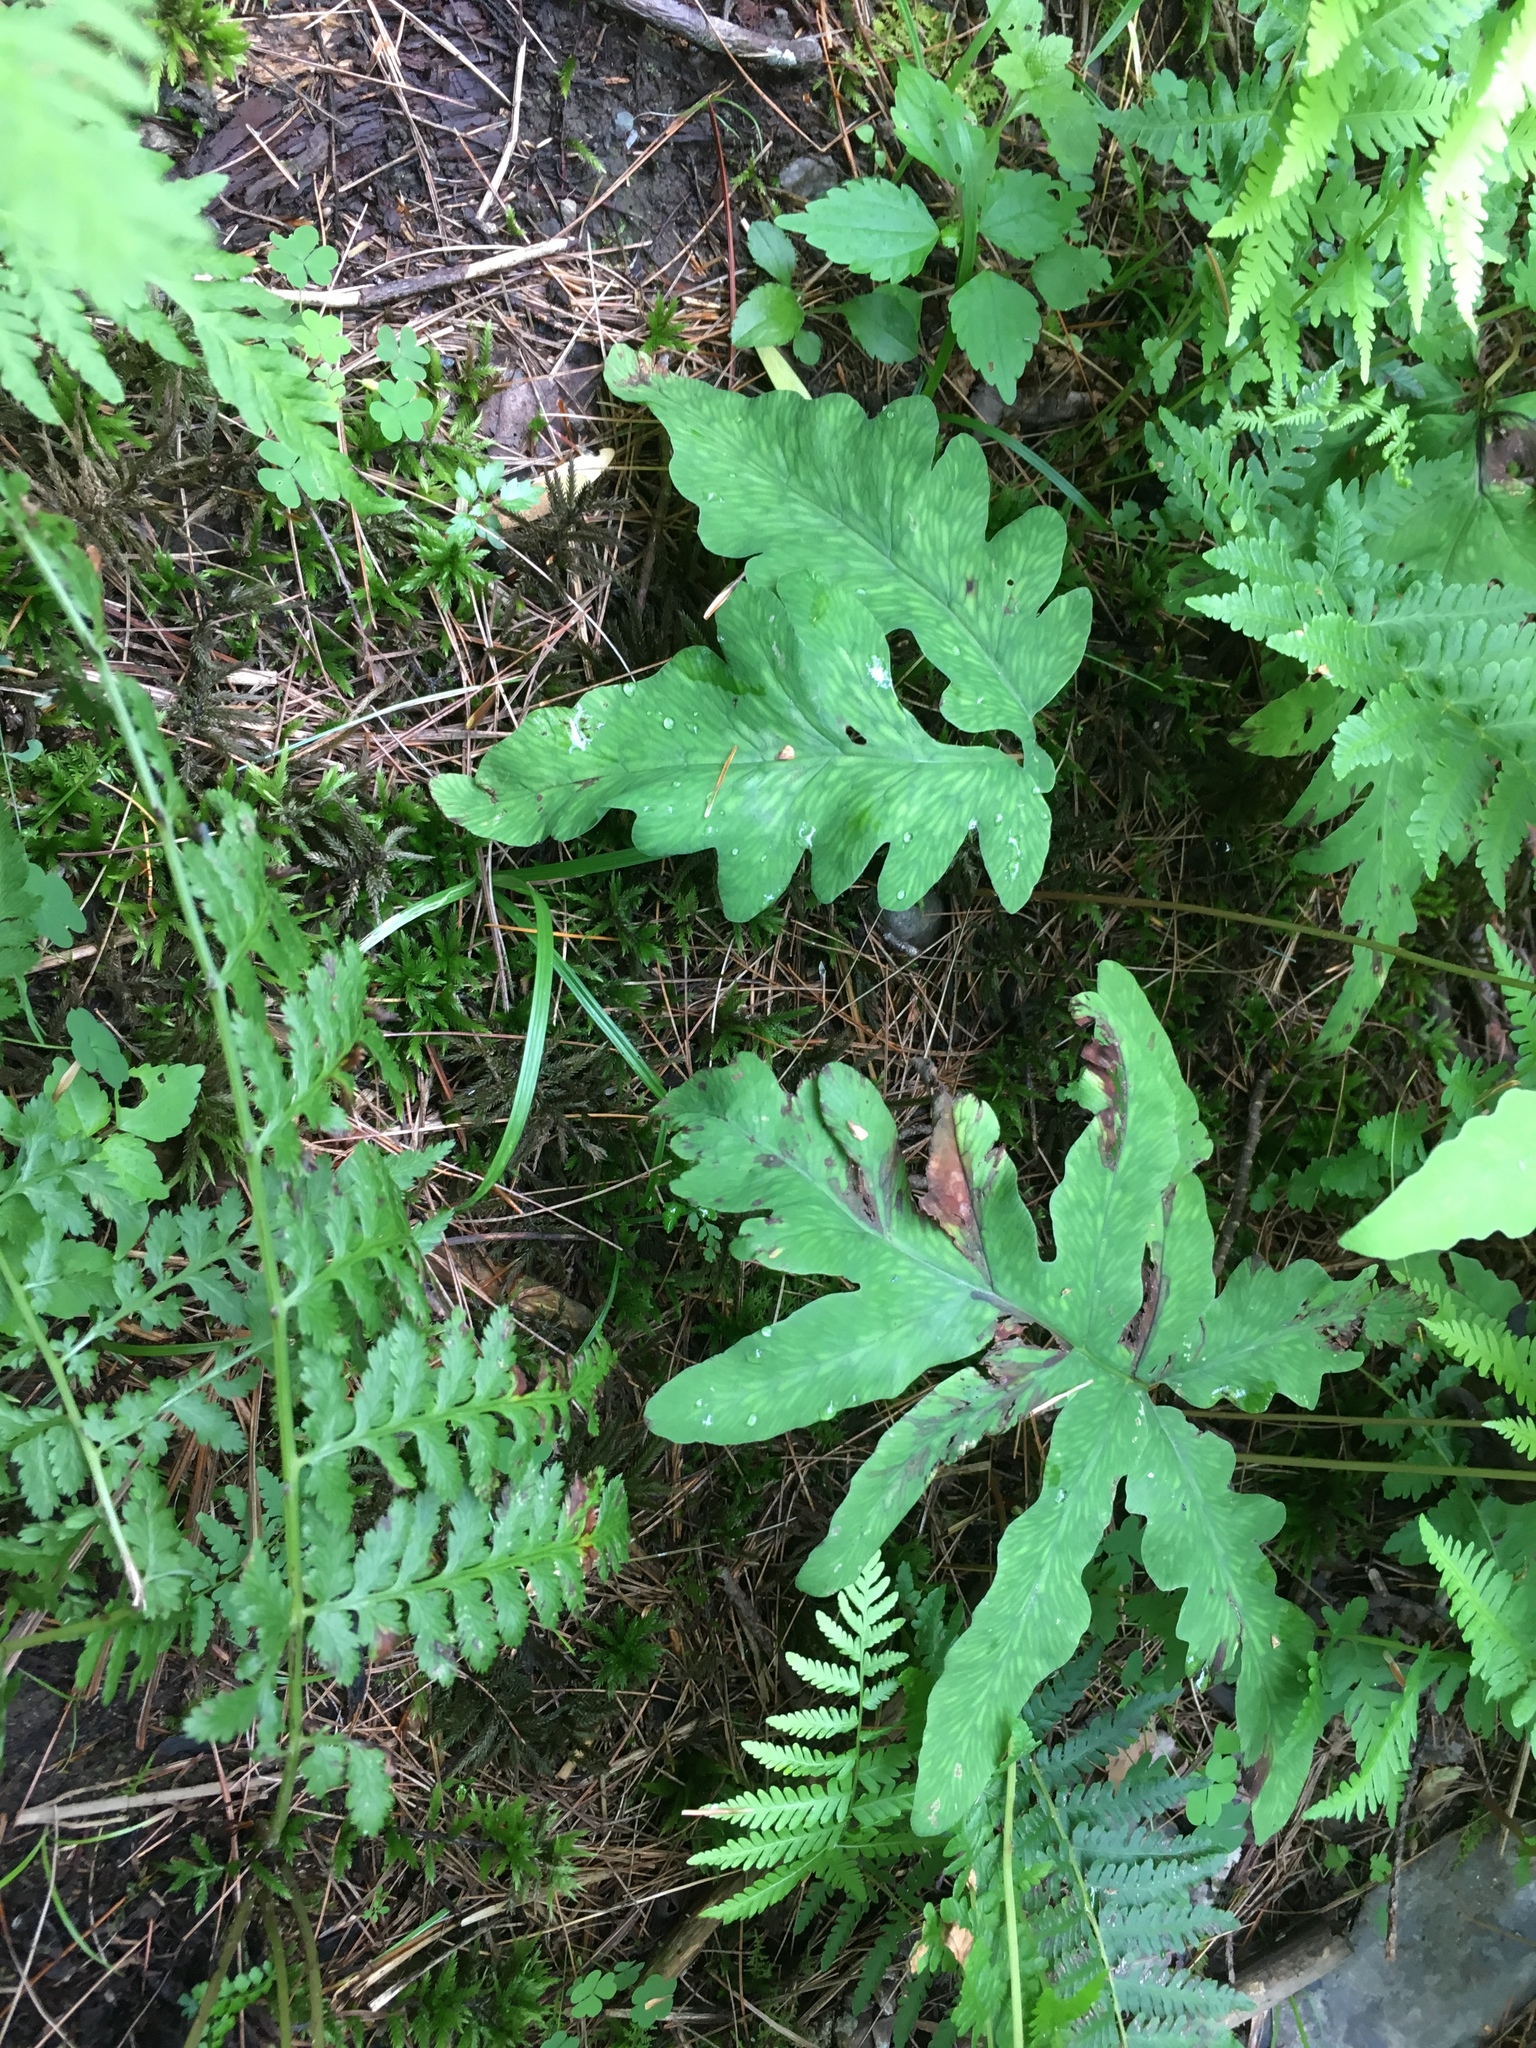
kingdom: Plantae
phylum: Tracheophyta
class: Polypodiopsida
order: Polypodiales
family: Onocleaceae
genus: Onoclea
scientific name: Onoclea sensibilis
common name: Sensitive fern
